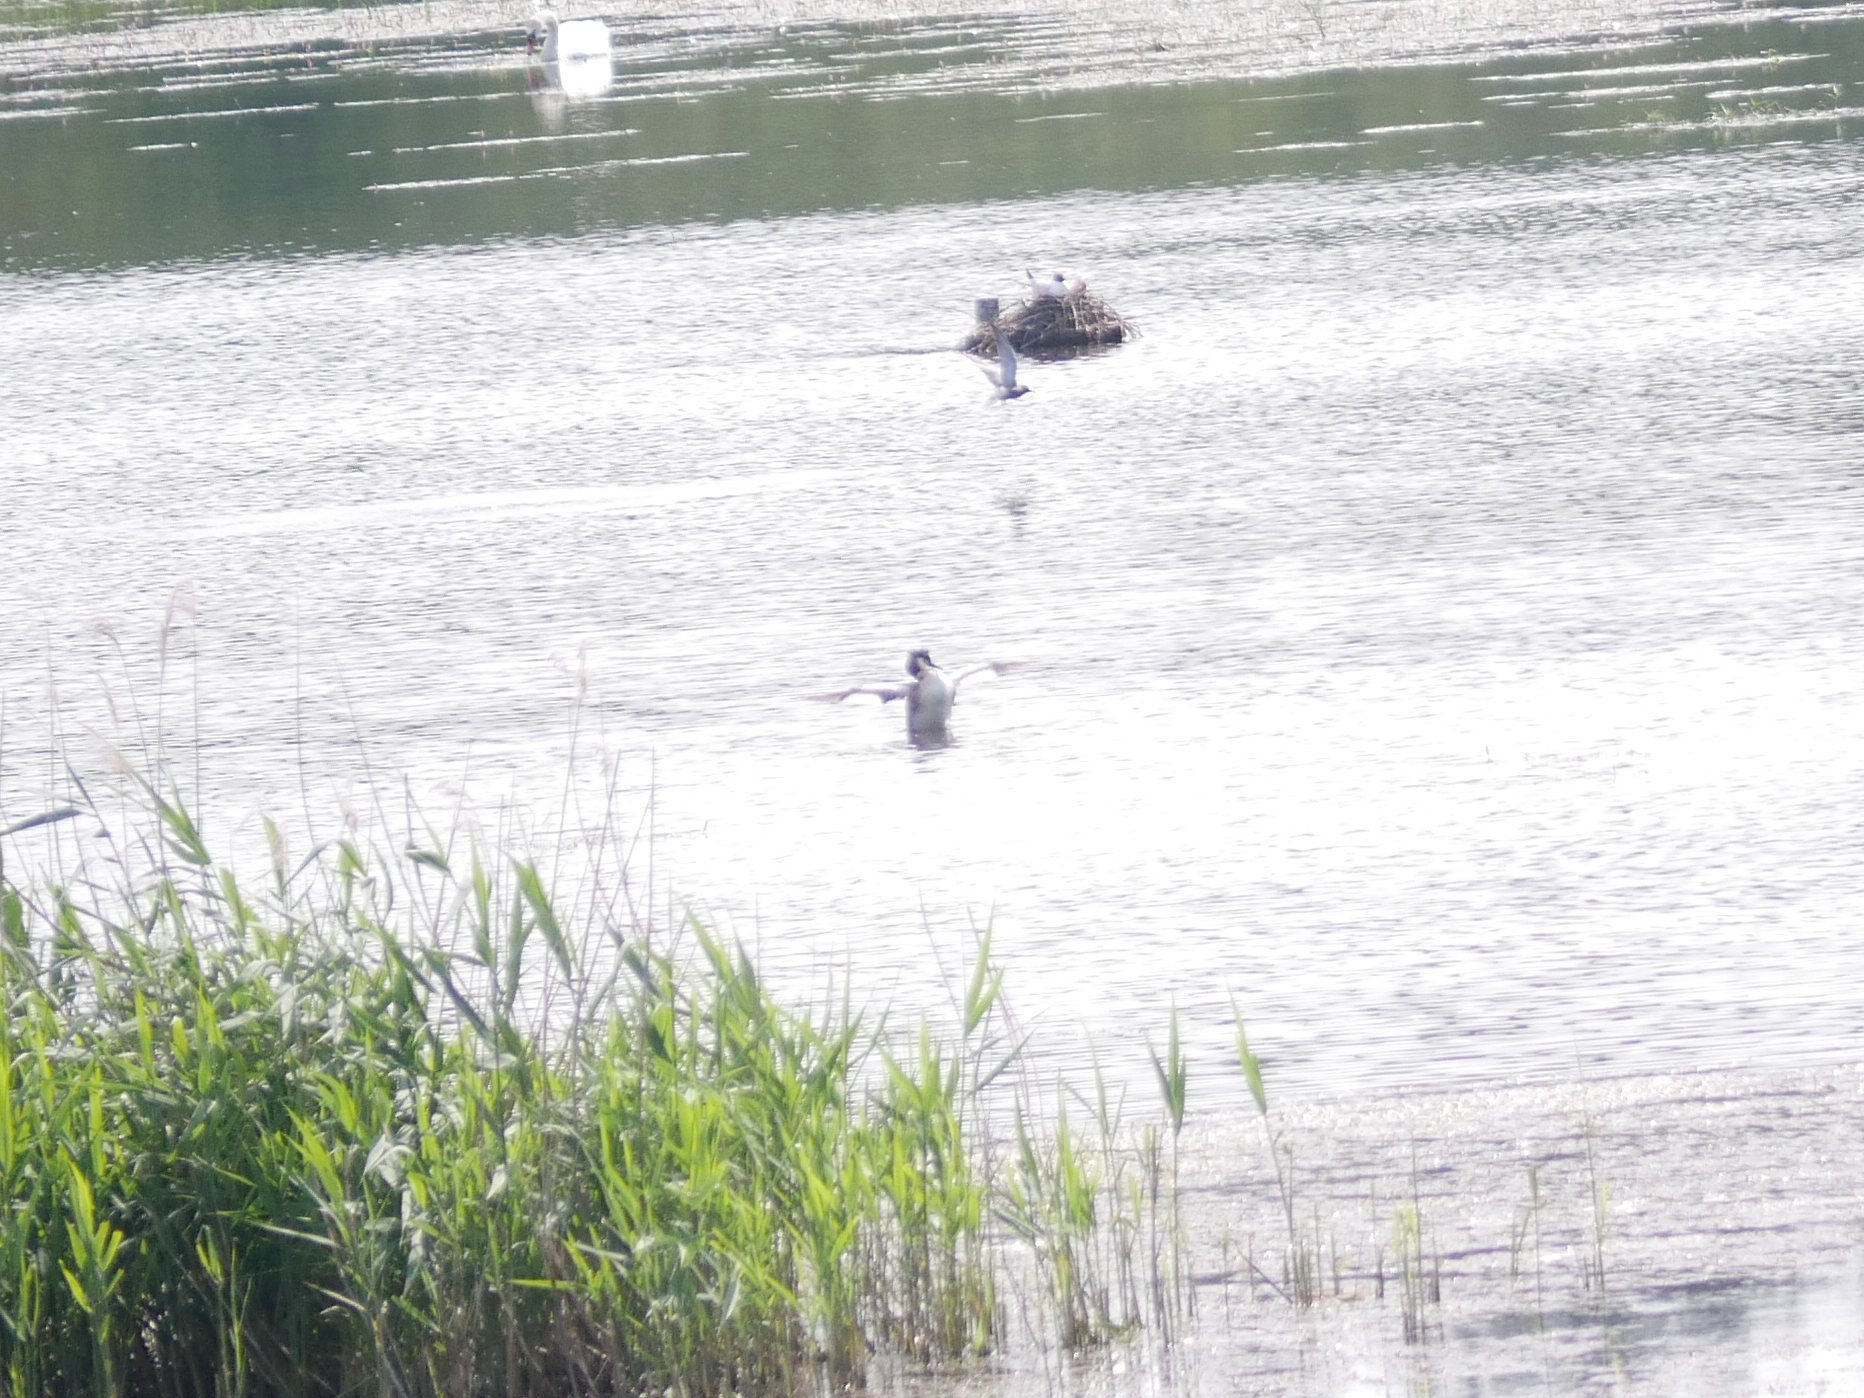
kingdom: Animalia
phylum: Chordata
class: Aves
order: Podicipediformes
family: Podicipedidae
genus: Podiceps
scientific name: Podiceps cristatus
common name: Great crested grebe
